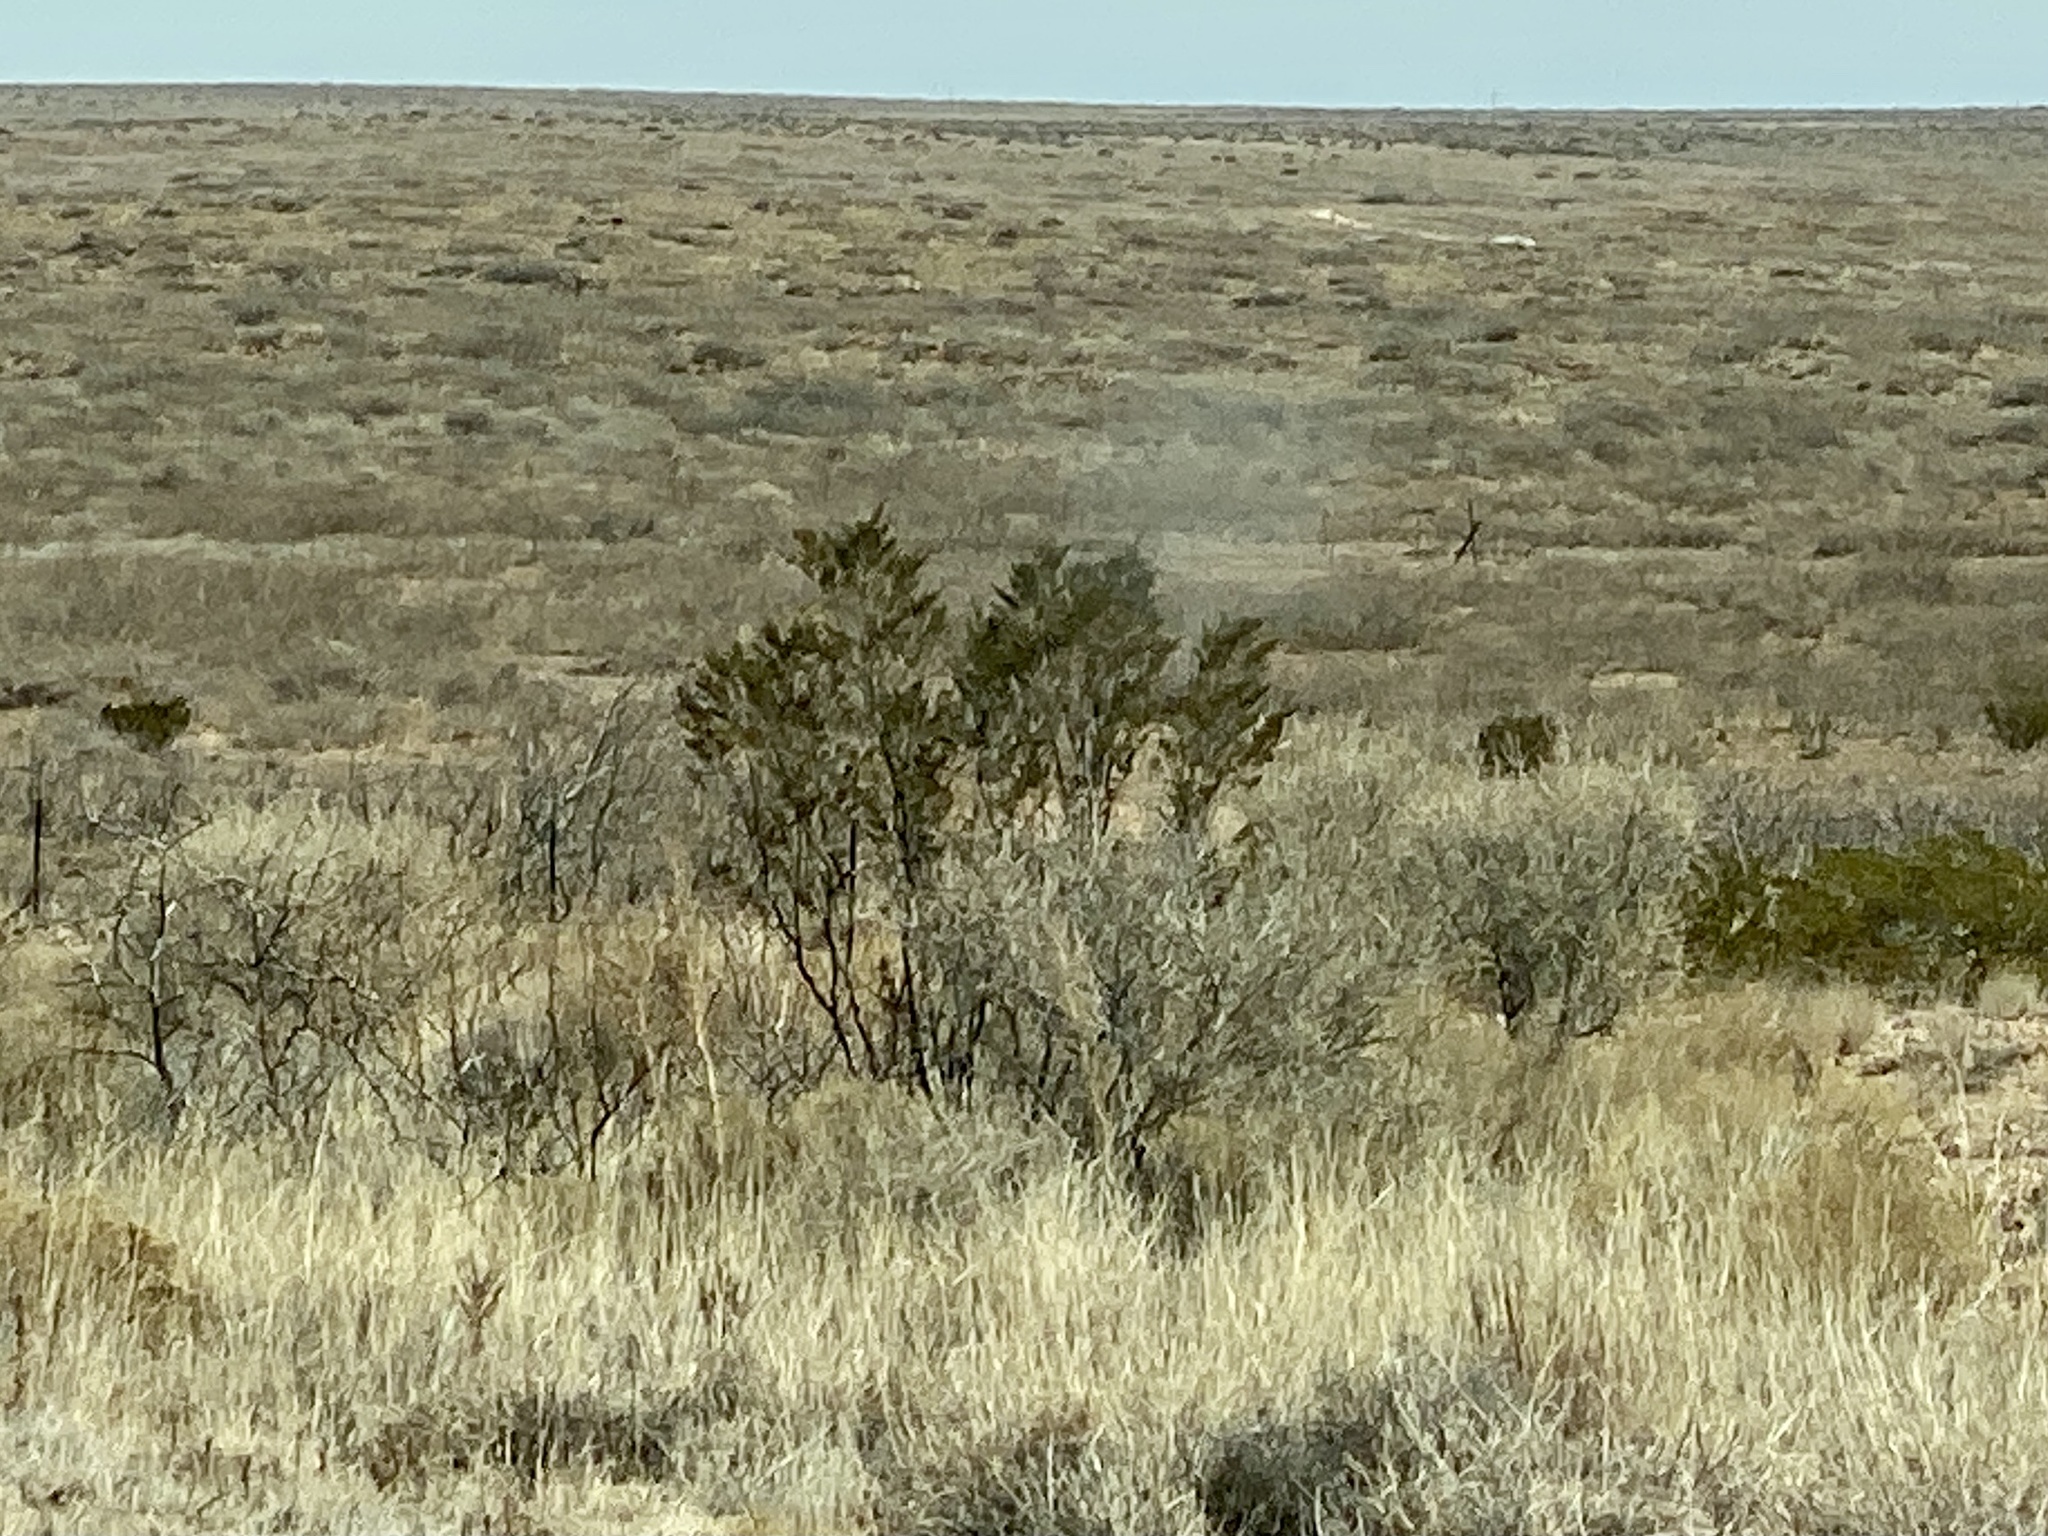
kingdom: Plantae
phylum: Tracheophyta
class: Magnoliopsida
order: Zygophyllales
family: Zygophyllaceae
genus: Larrea
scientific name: Larrea tridentata
